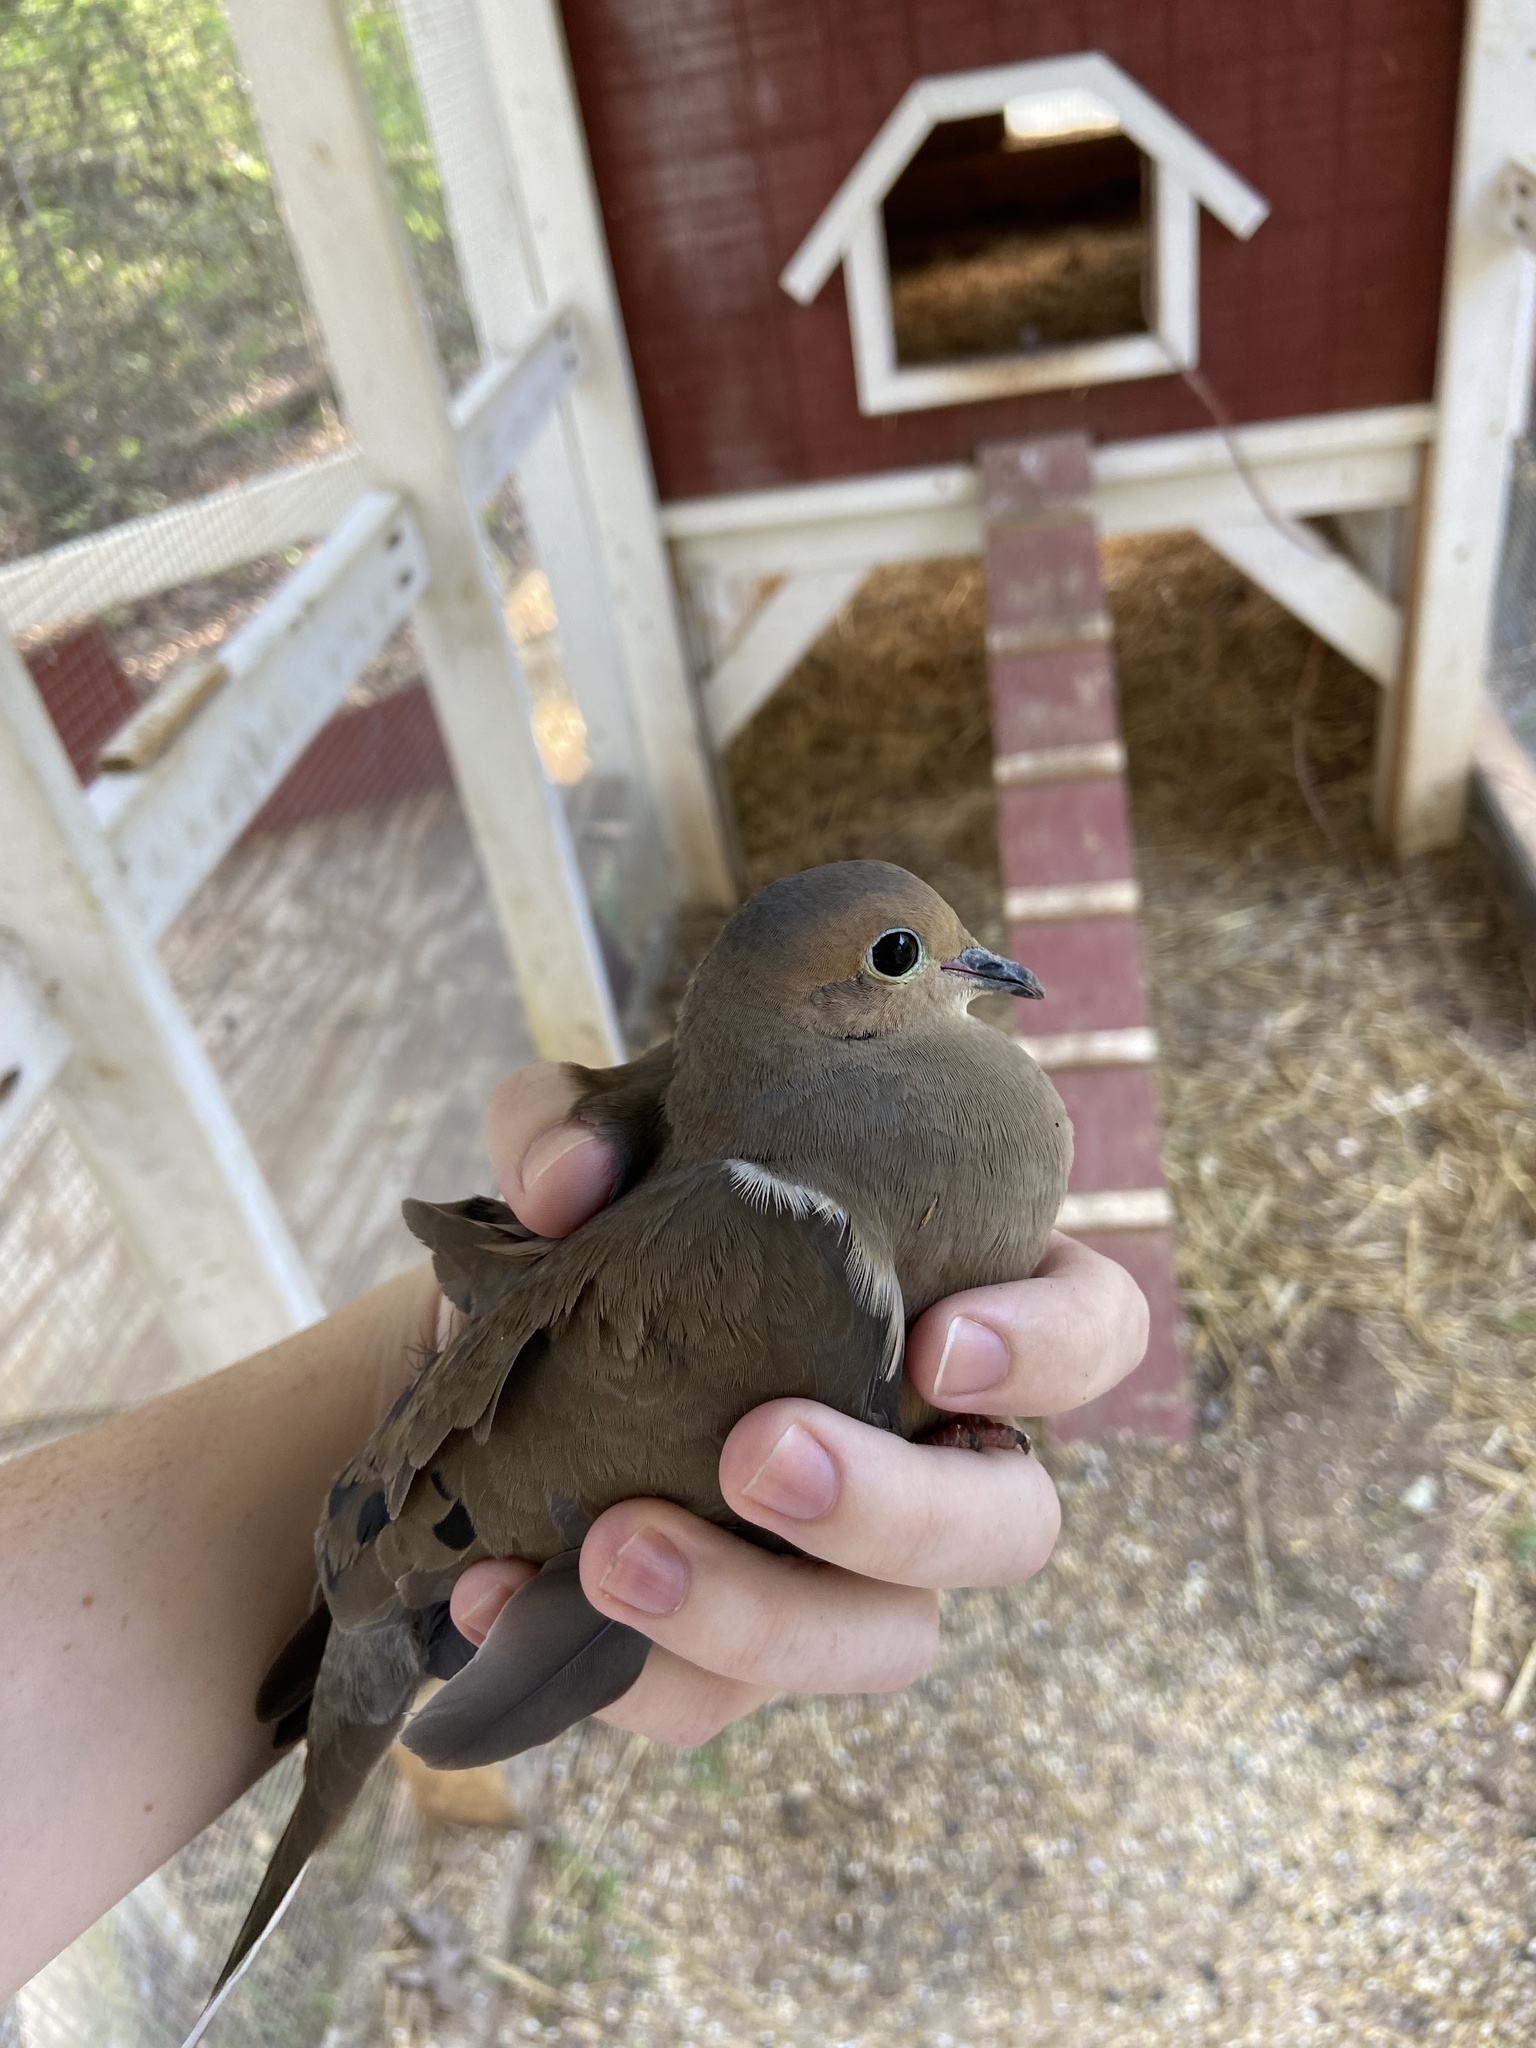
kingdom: Animalia
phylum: Chordata
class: Aves
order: Columbiformes
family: Columbidae
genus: Zenaida
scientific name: Zenaida macroura
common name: Mourning dove
